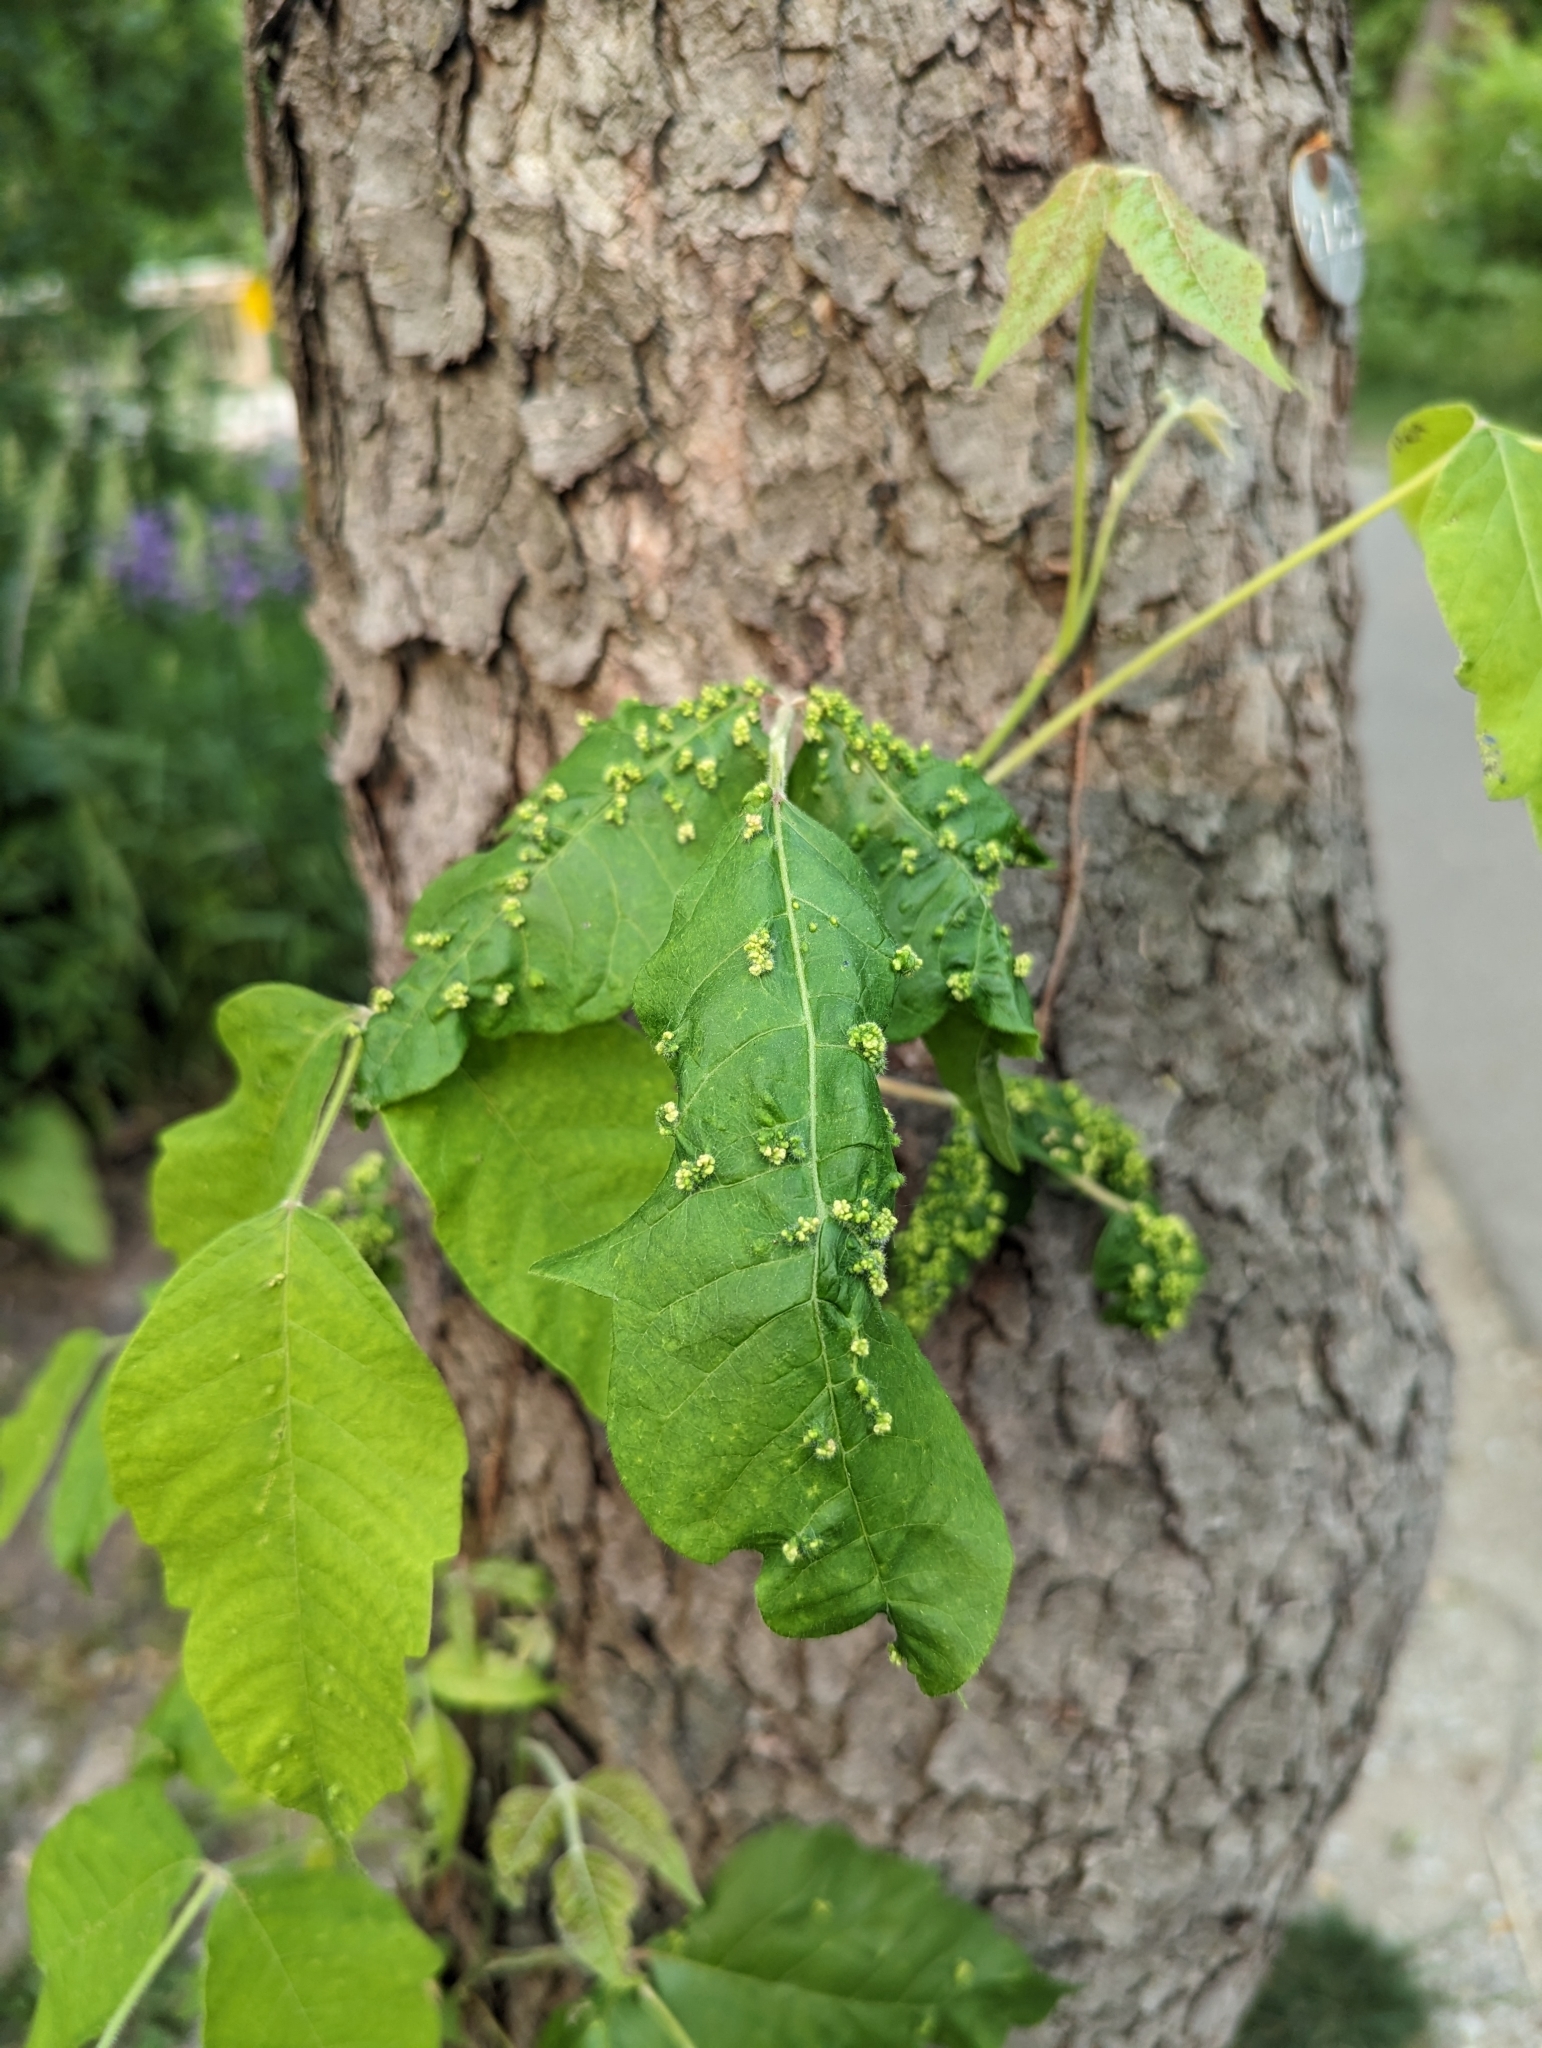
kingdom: Plantae
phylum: Tracheophyta
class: Magnoliopsida
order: Sapindales
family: Anacardiaceae
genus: Toxicodendron
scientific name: Toxicodendron radicans
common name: Poison ivy
